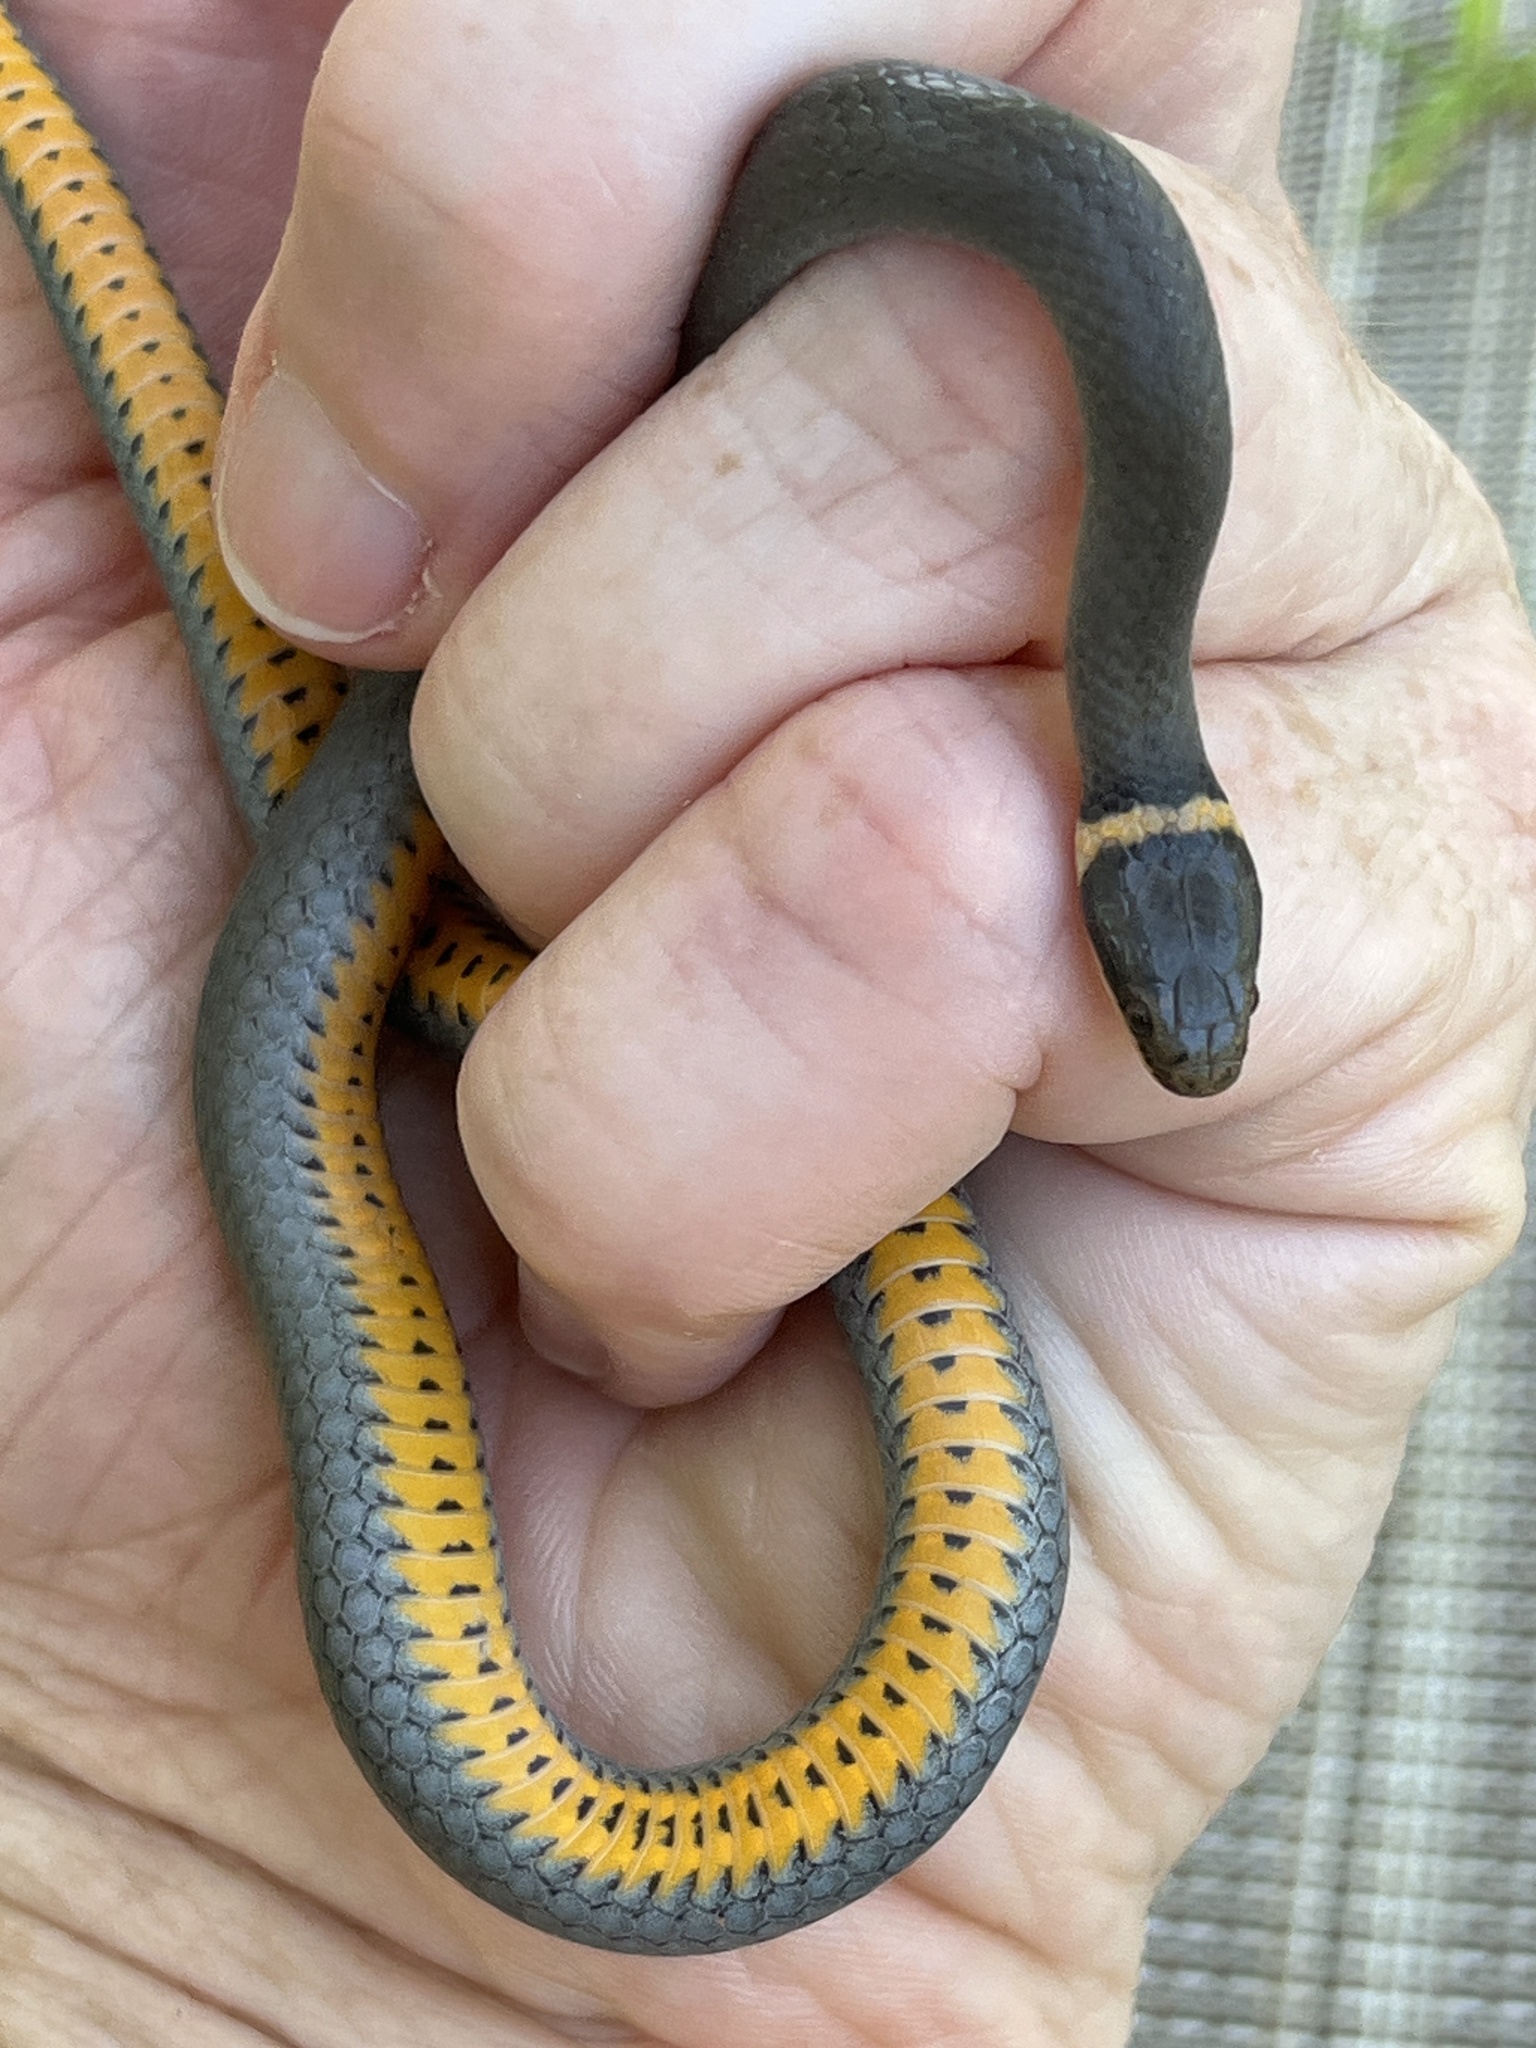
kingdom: Animalia
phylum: Chordata
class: Squamata
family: Colubridae
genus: Diadophis
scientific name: Diadophis punctatus
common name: Ringneck snake
